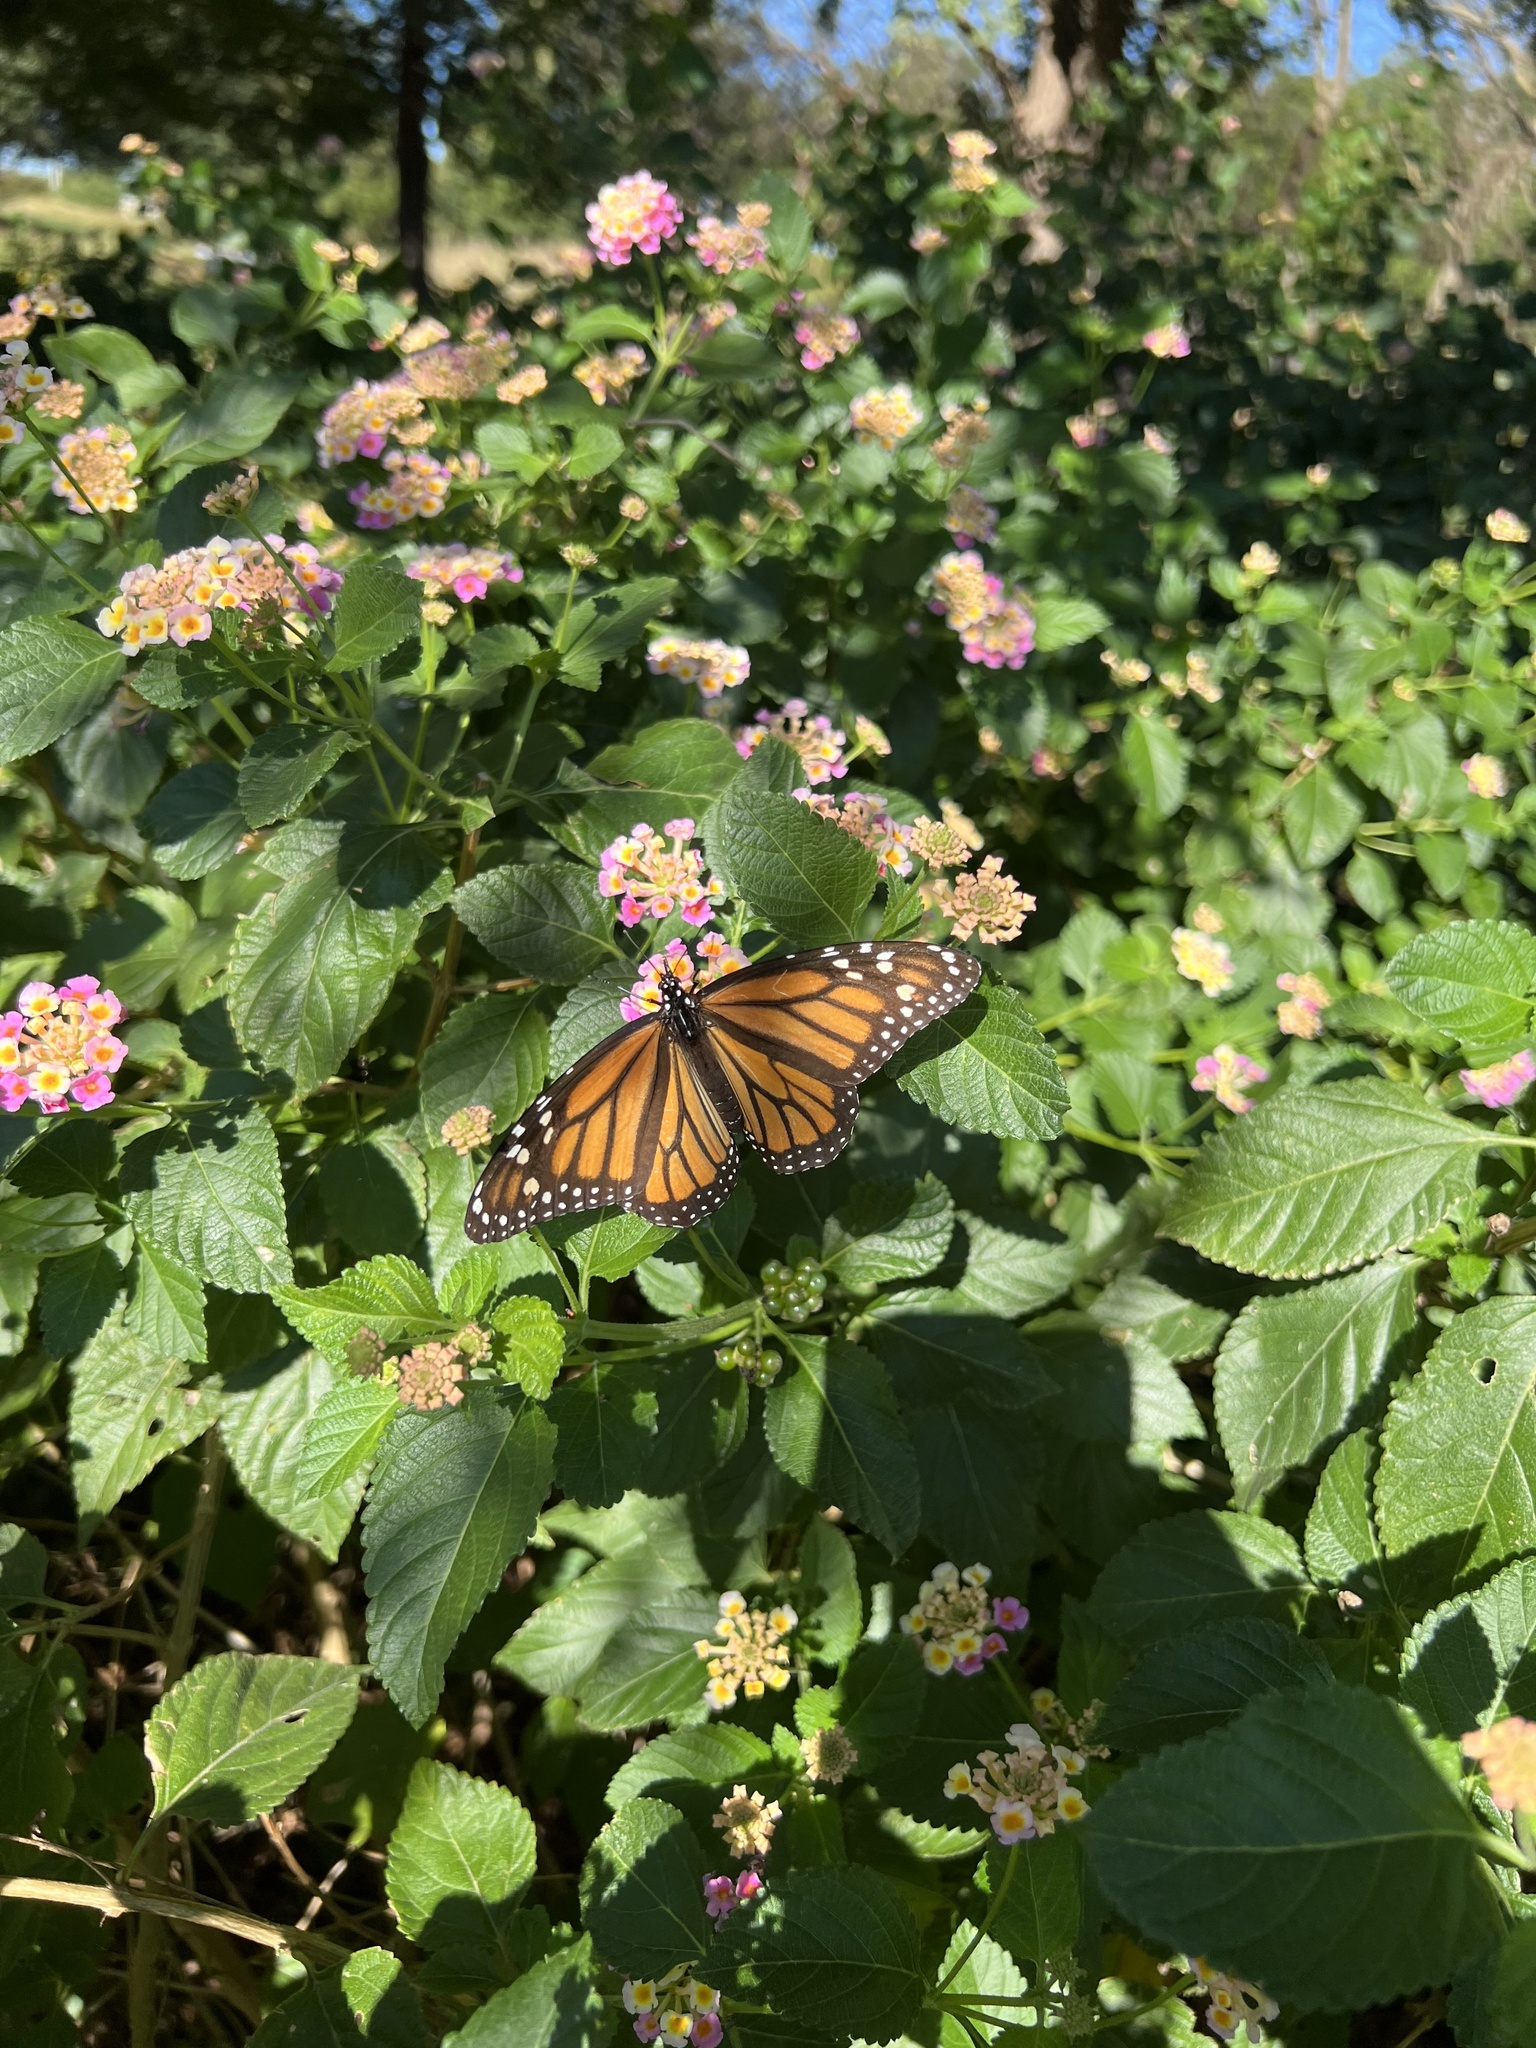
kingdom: Animalia
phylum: Arthropoda
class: Insecta
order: Lepidoptera
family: Nymphalidae
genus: Danaus
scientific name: Danaus plexippus
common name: Monarch
